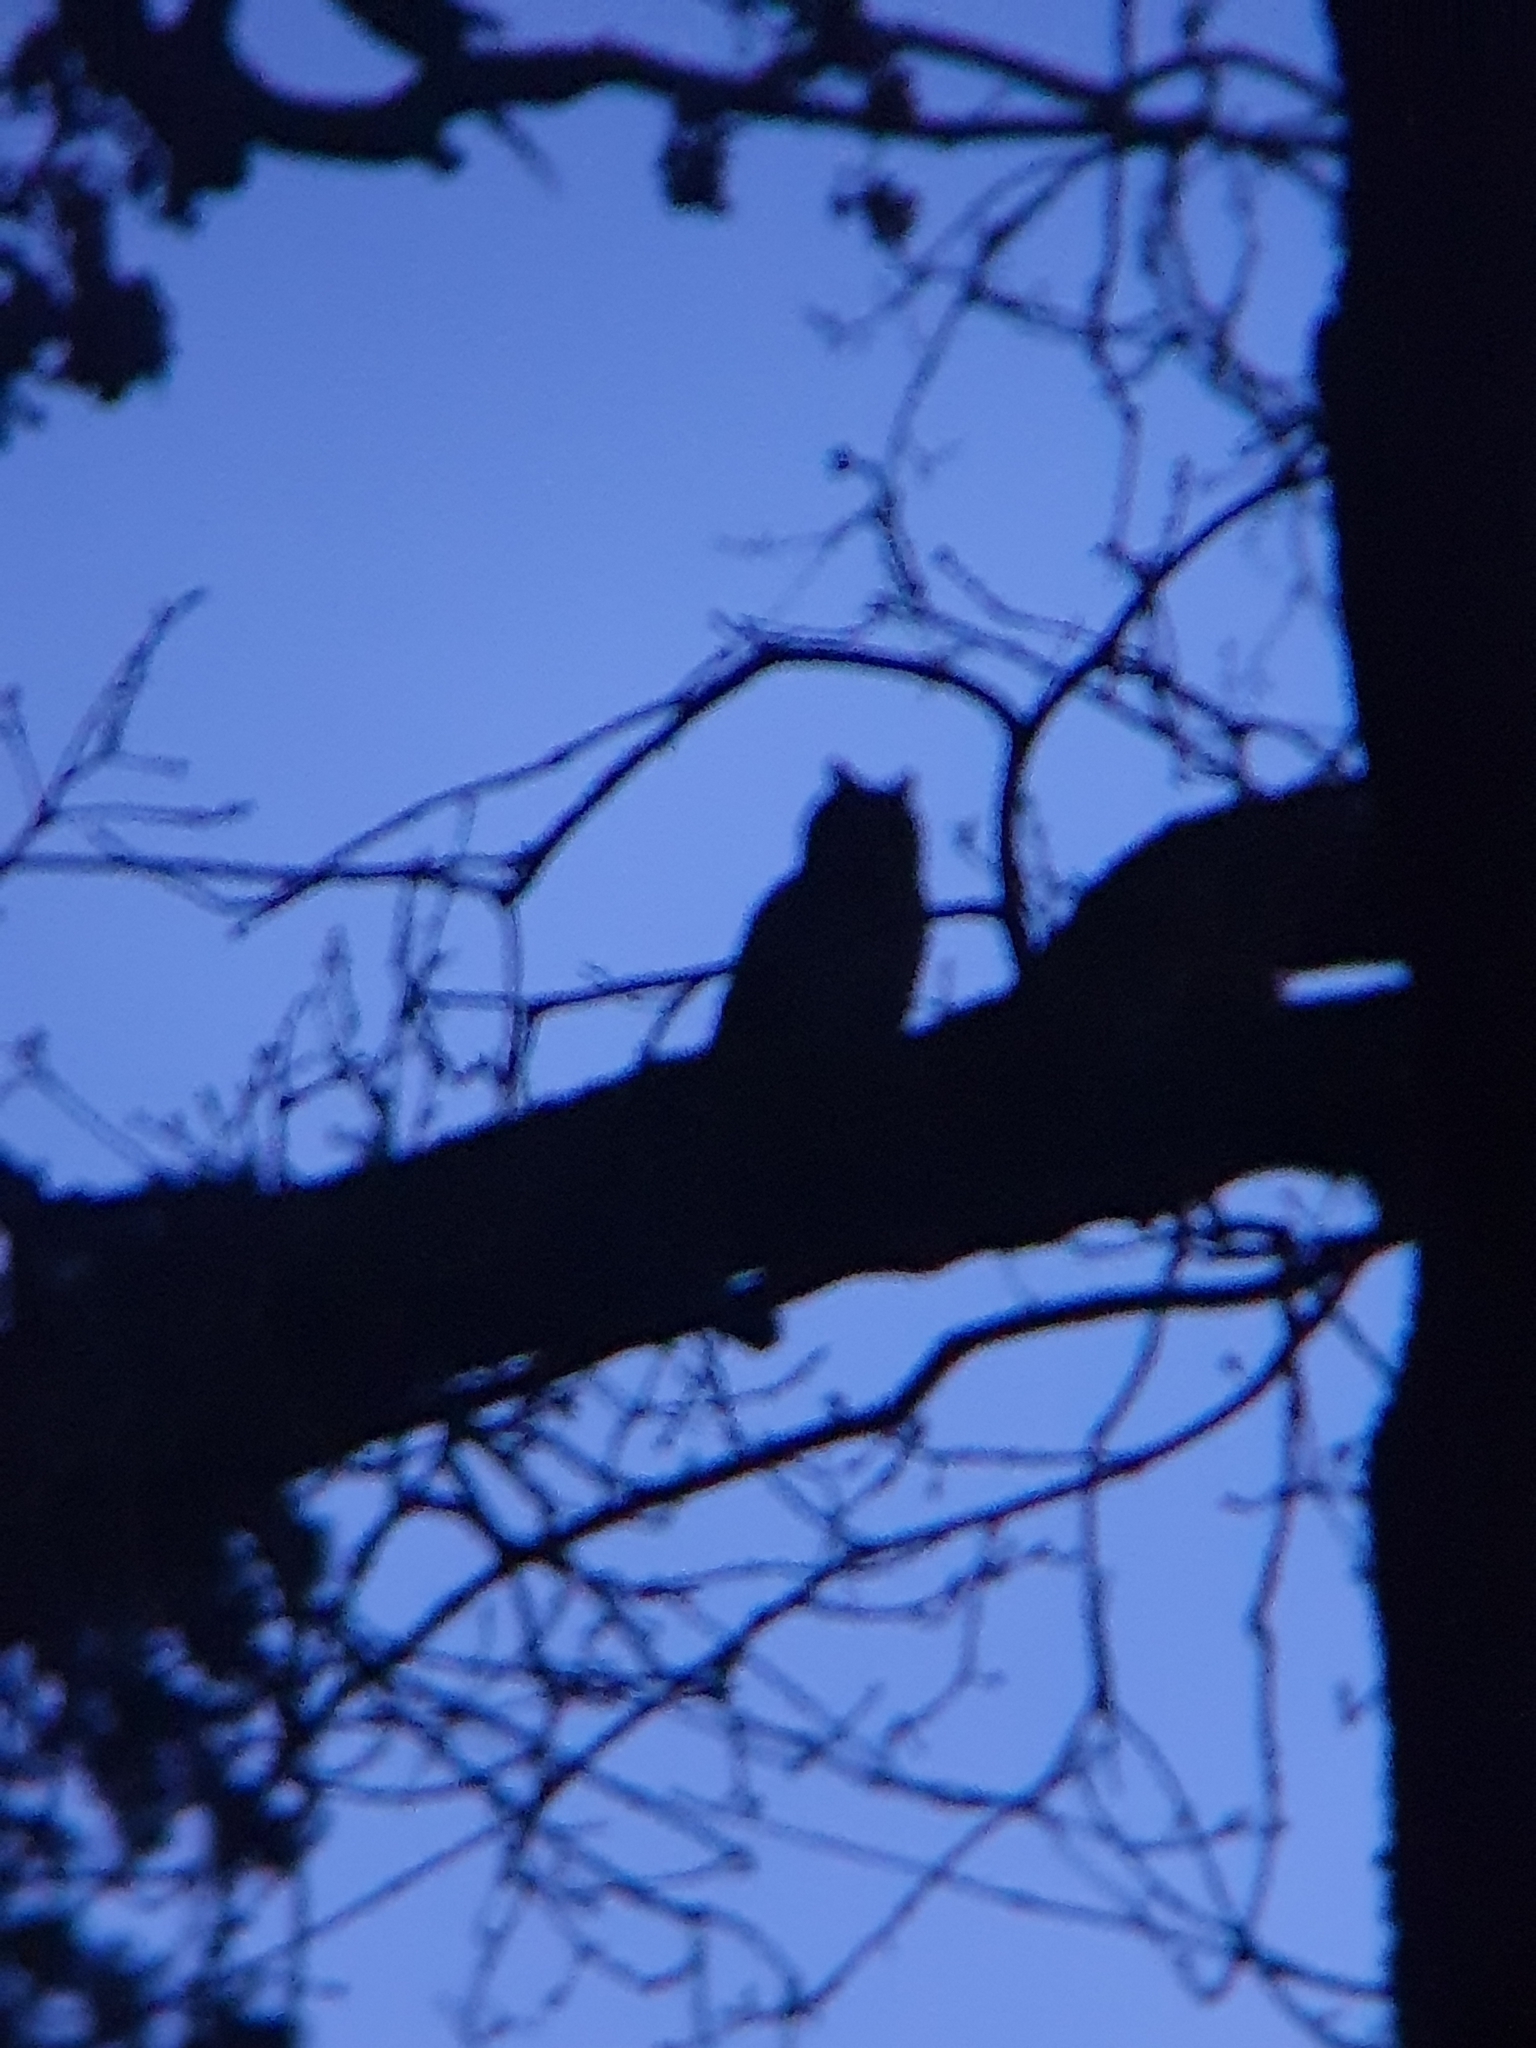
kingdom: Animalia
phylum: Chordata
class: Aves
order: Strigiformes
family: Strigidae
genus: Asio
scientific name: Asio otus
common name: Long-eared owl
